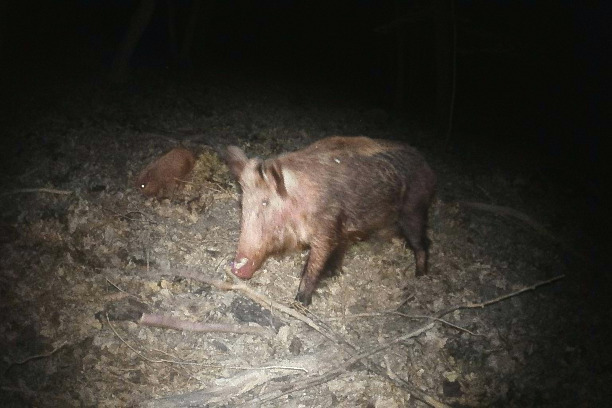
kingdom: Animalia
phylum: Chordata
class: Mammalia
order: Artiodactyla
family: Suidae
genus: Sus
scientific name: Sus scrofa
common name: Wild boar
